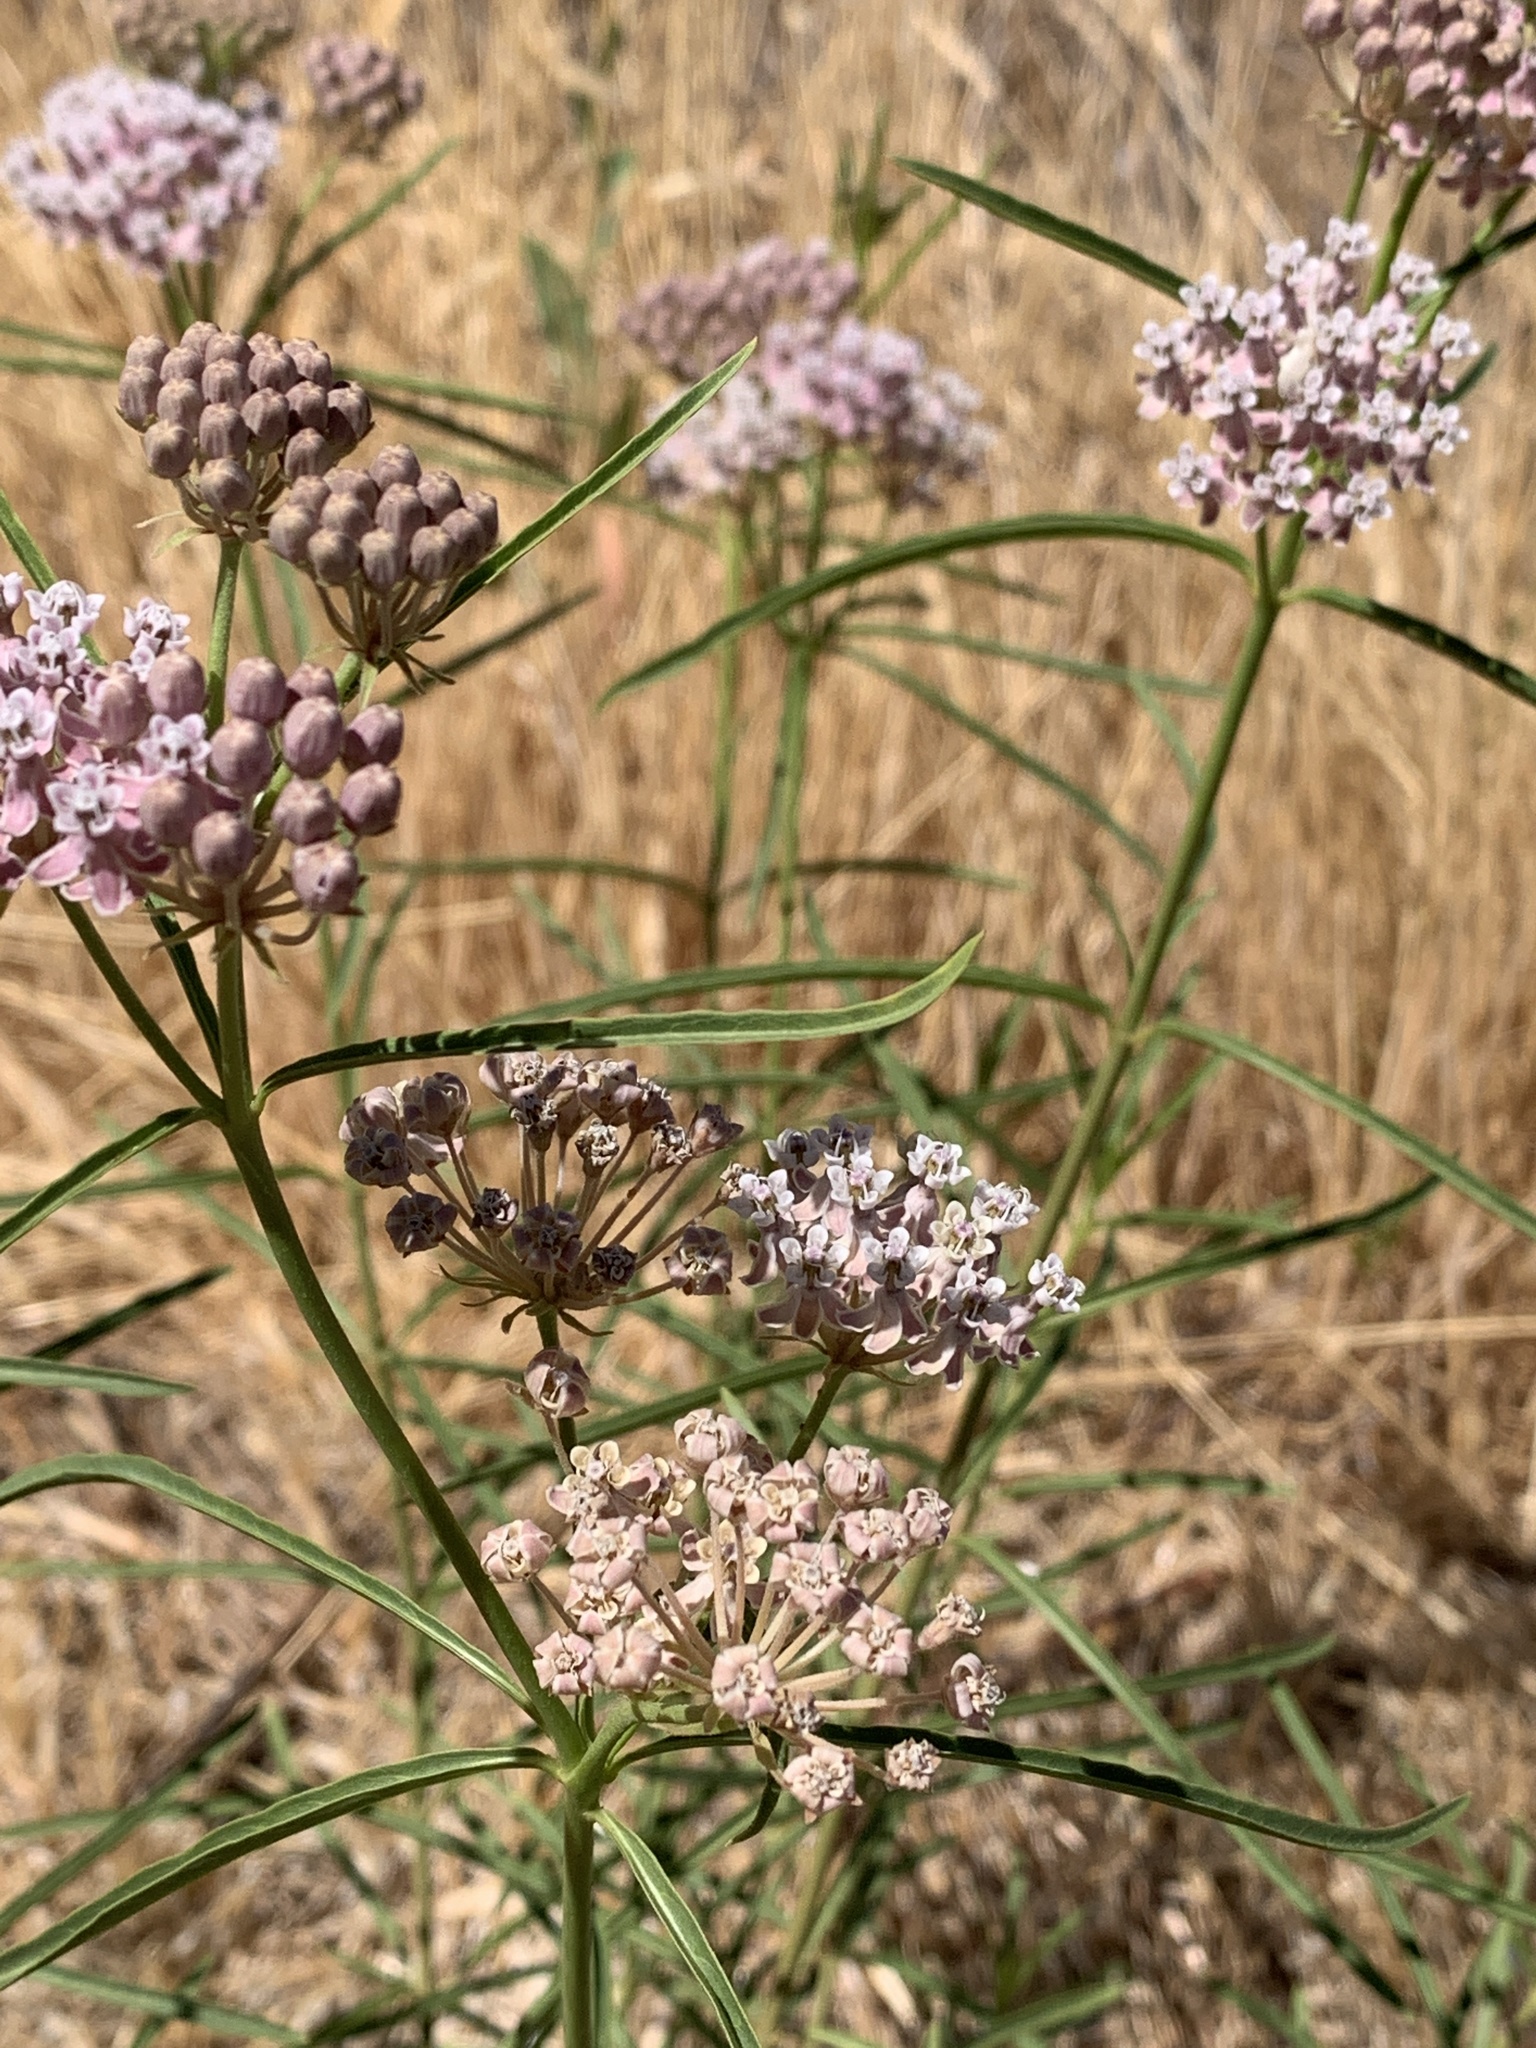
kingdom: Plantae
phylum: Tracheophyta
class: Magnoliopsida
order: Gentianales
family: Apocynaceae
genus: Asclepias
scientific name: Asclepias fascicularis
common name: Mexican milkweed
